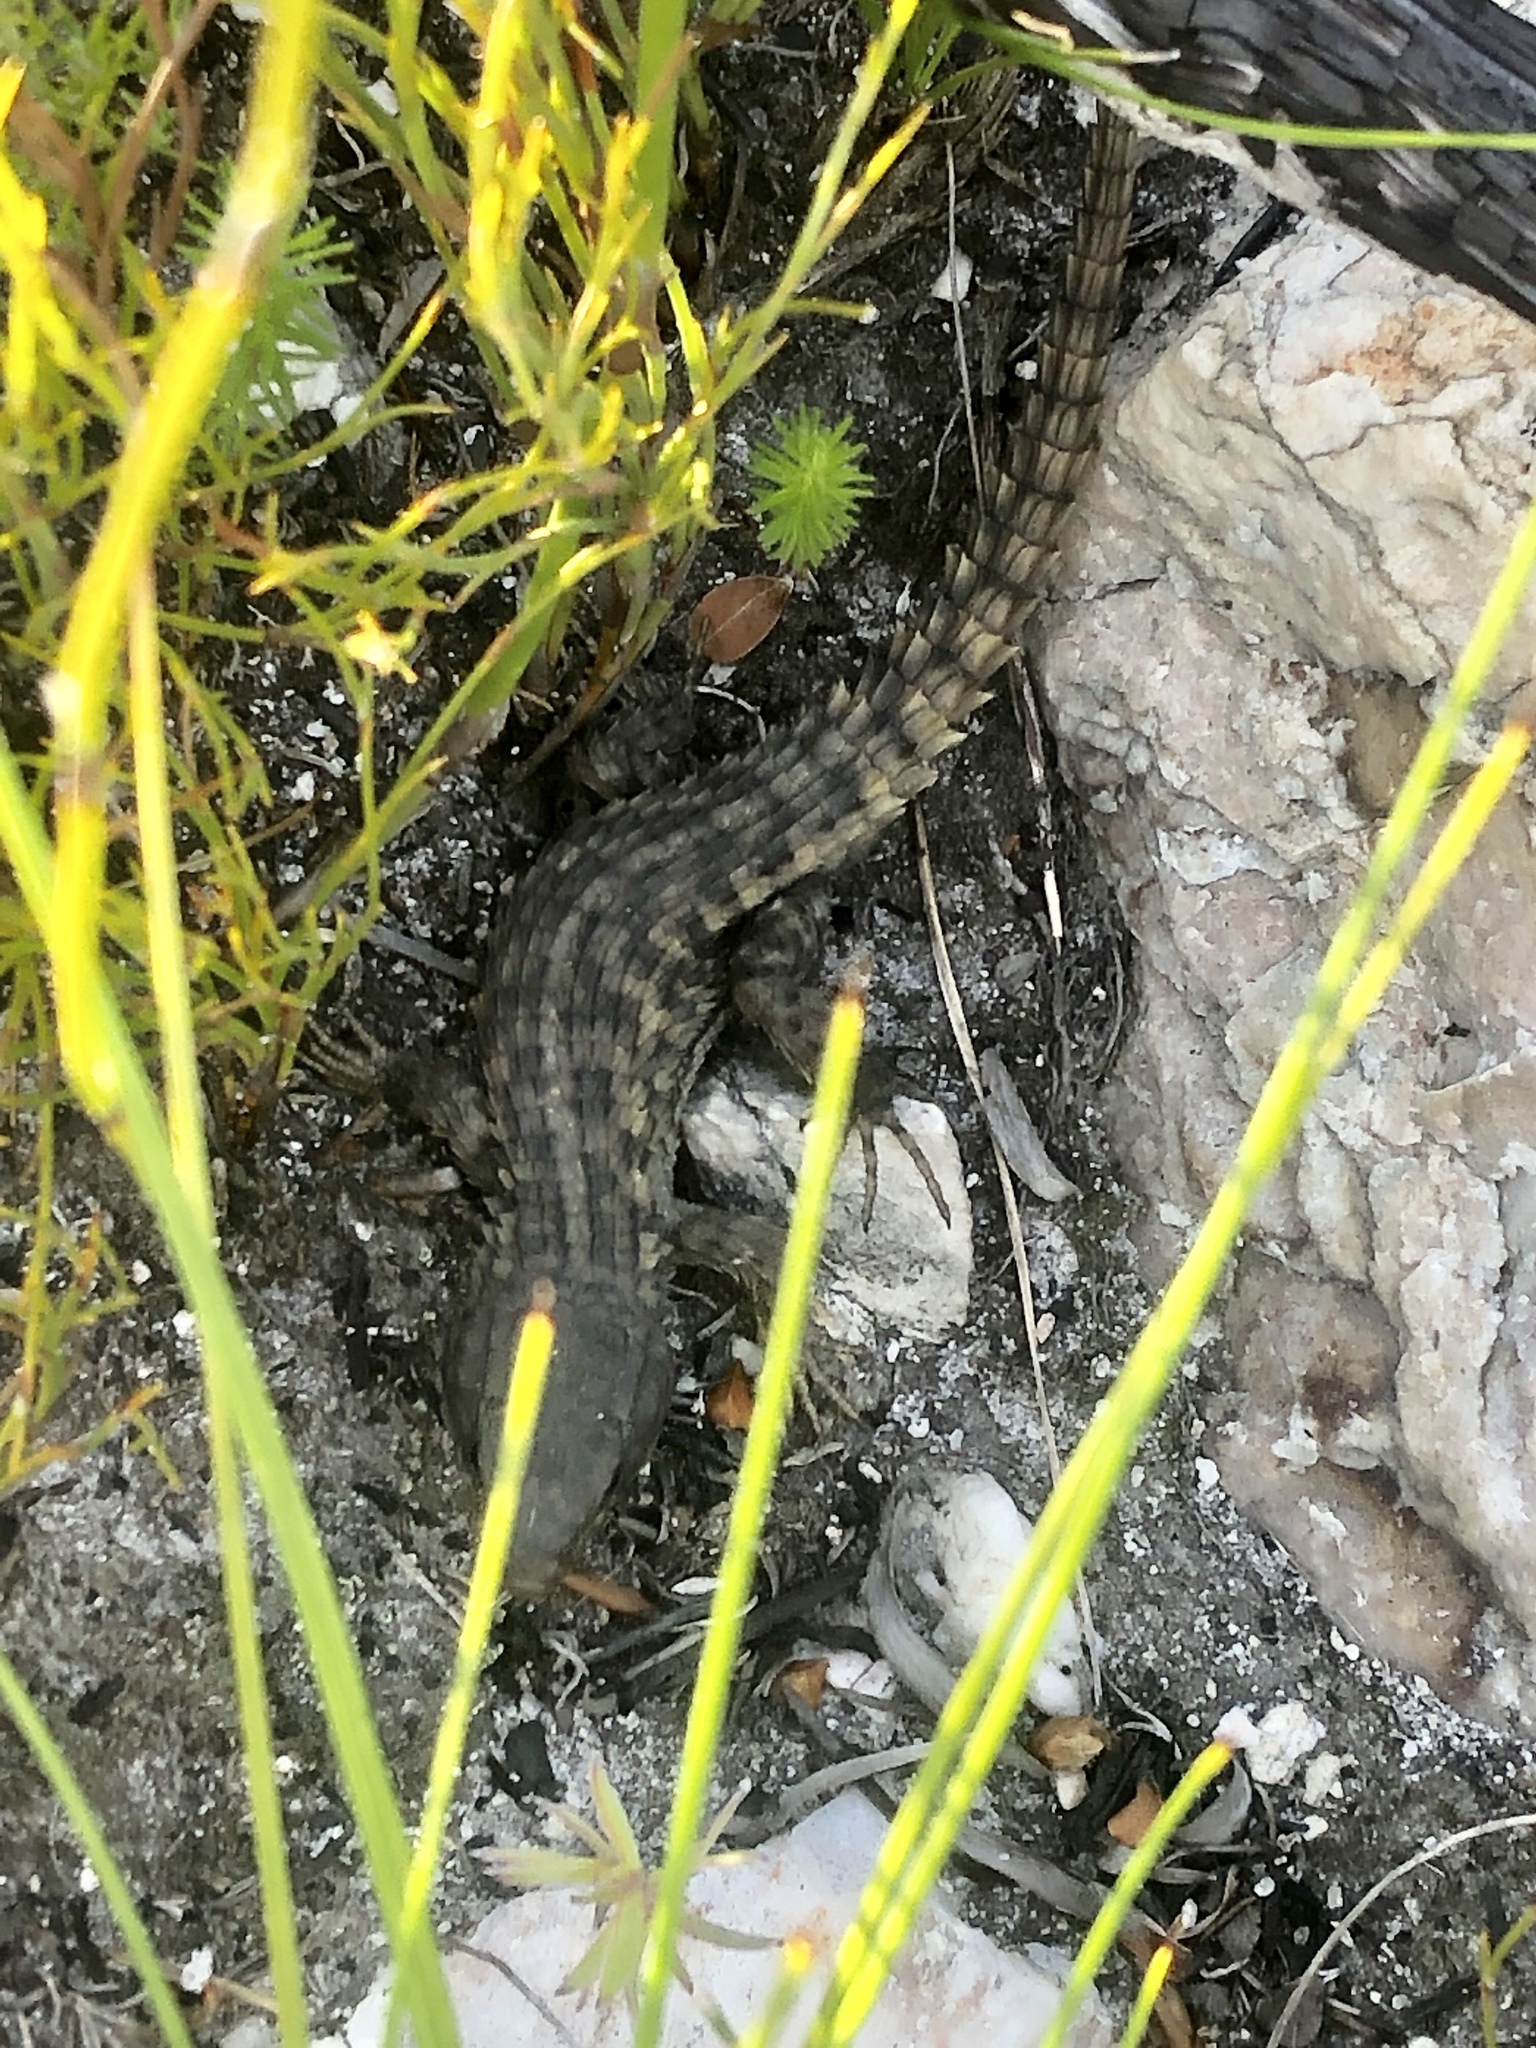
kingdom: Animalia
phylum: Chordata
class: Squamata
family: Cordylidae
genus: Cordylus
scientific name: Cordylus cordylus
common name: Cape girdled lizard
